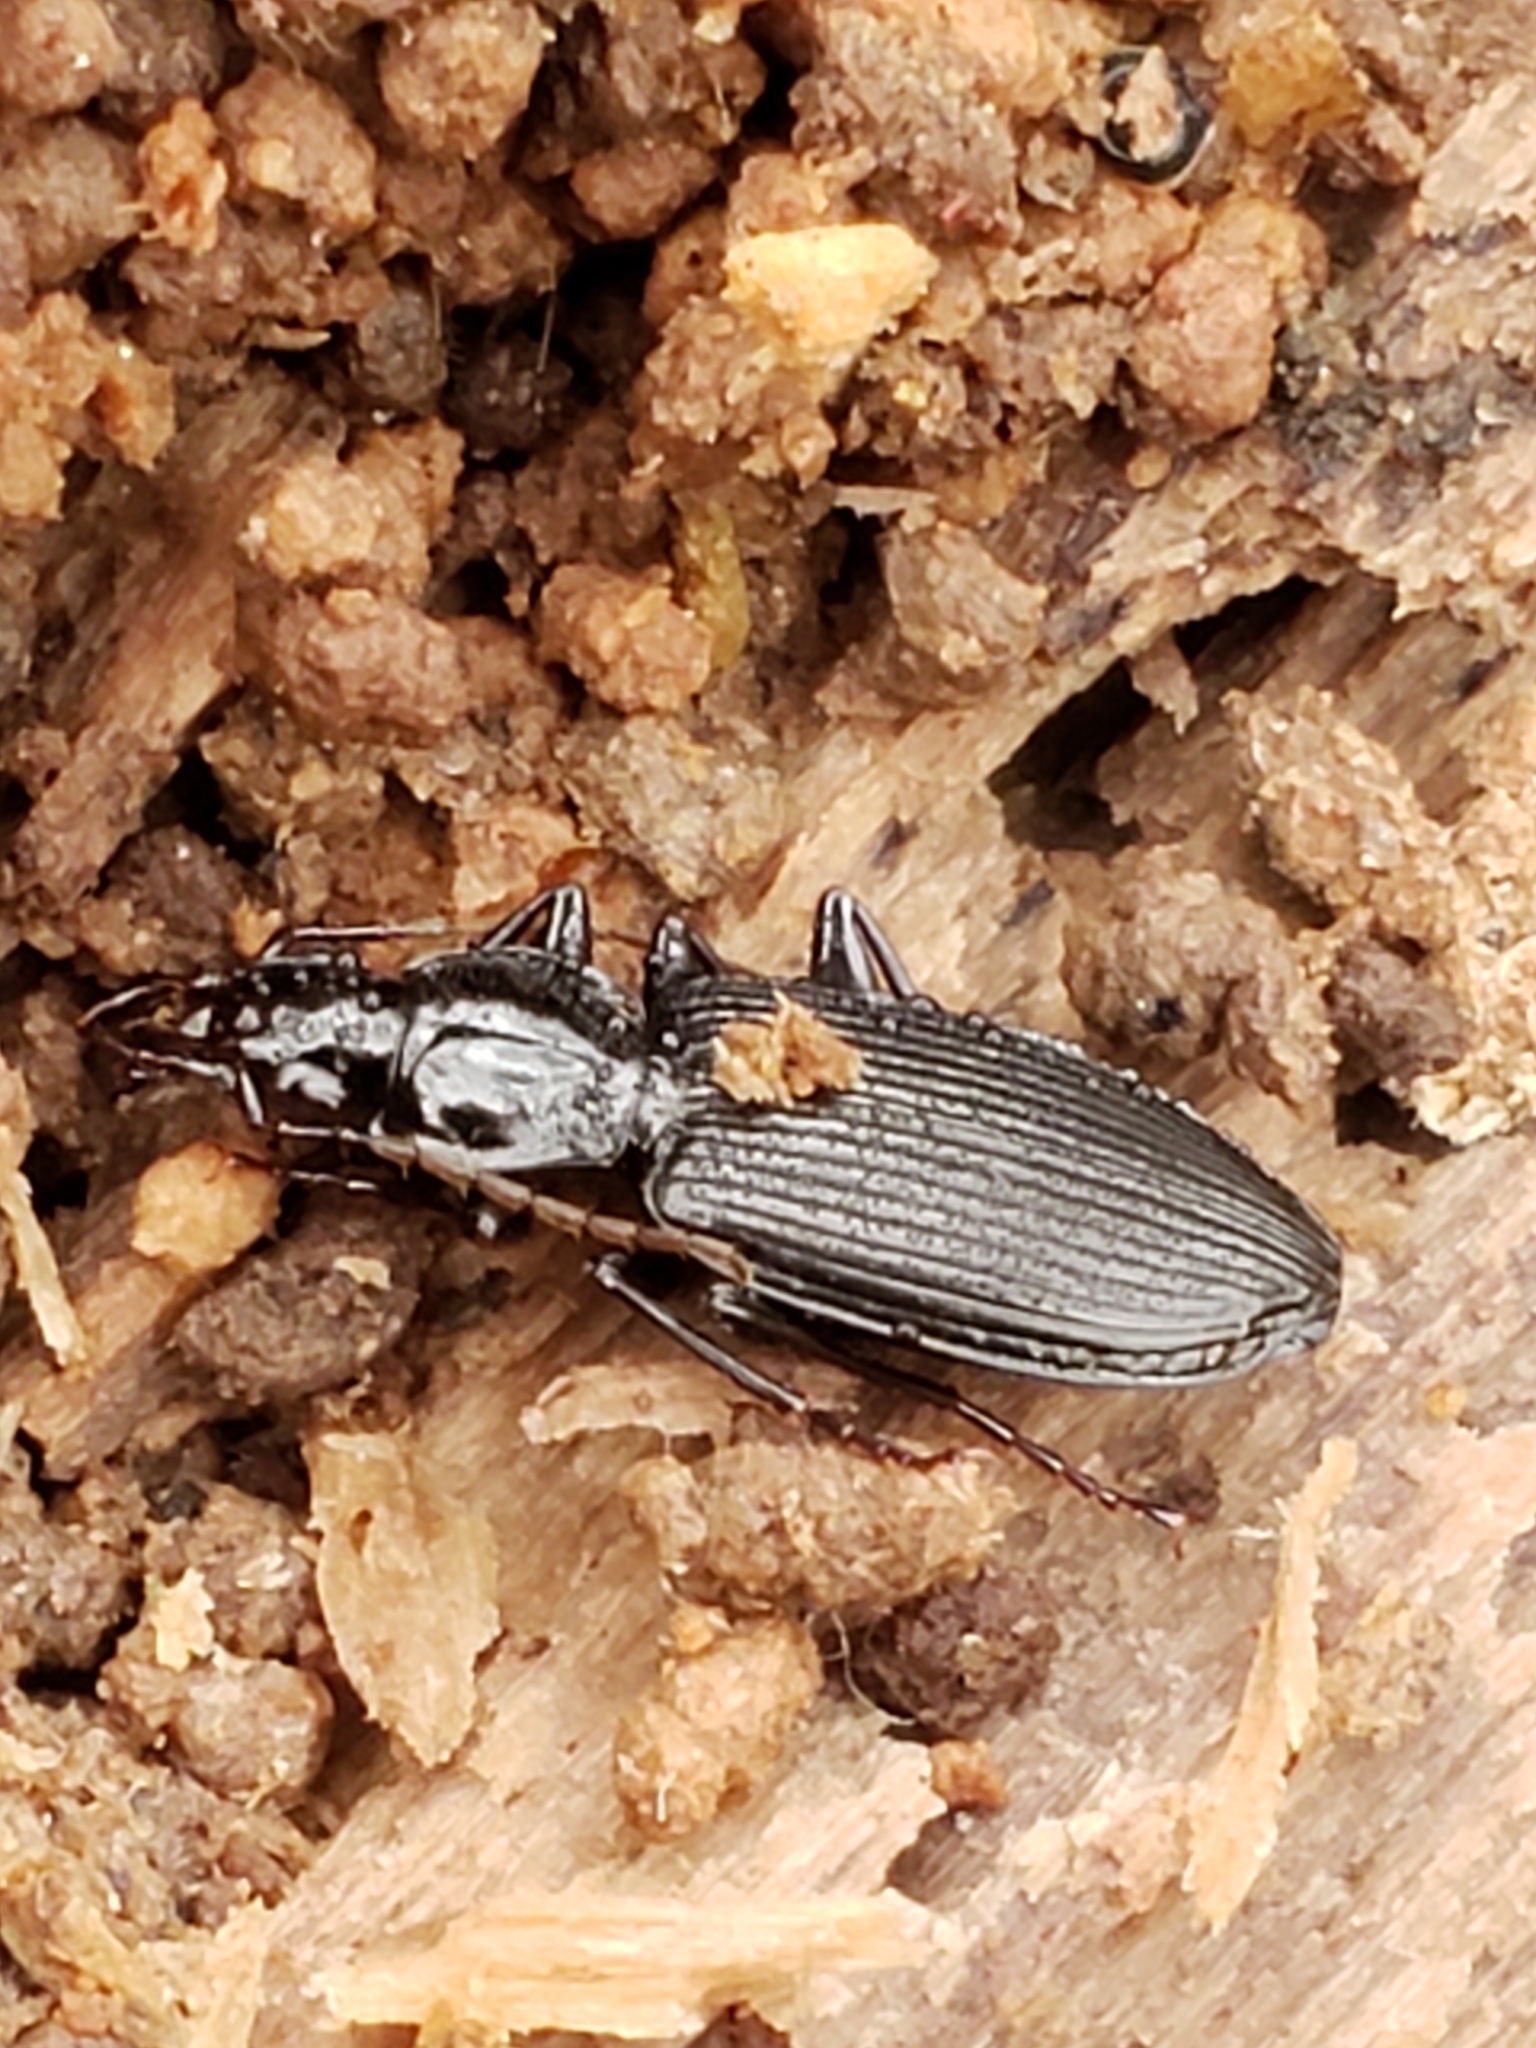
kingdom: Animalia
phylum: Arthropoda
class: Insecta
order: Coleoptera
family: Carabidae
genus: Platynus
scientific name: Platynus decentis
